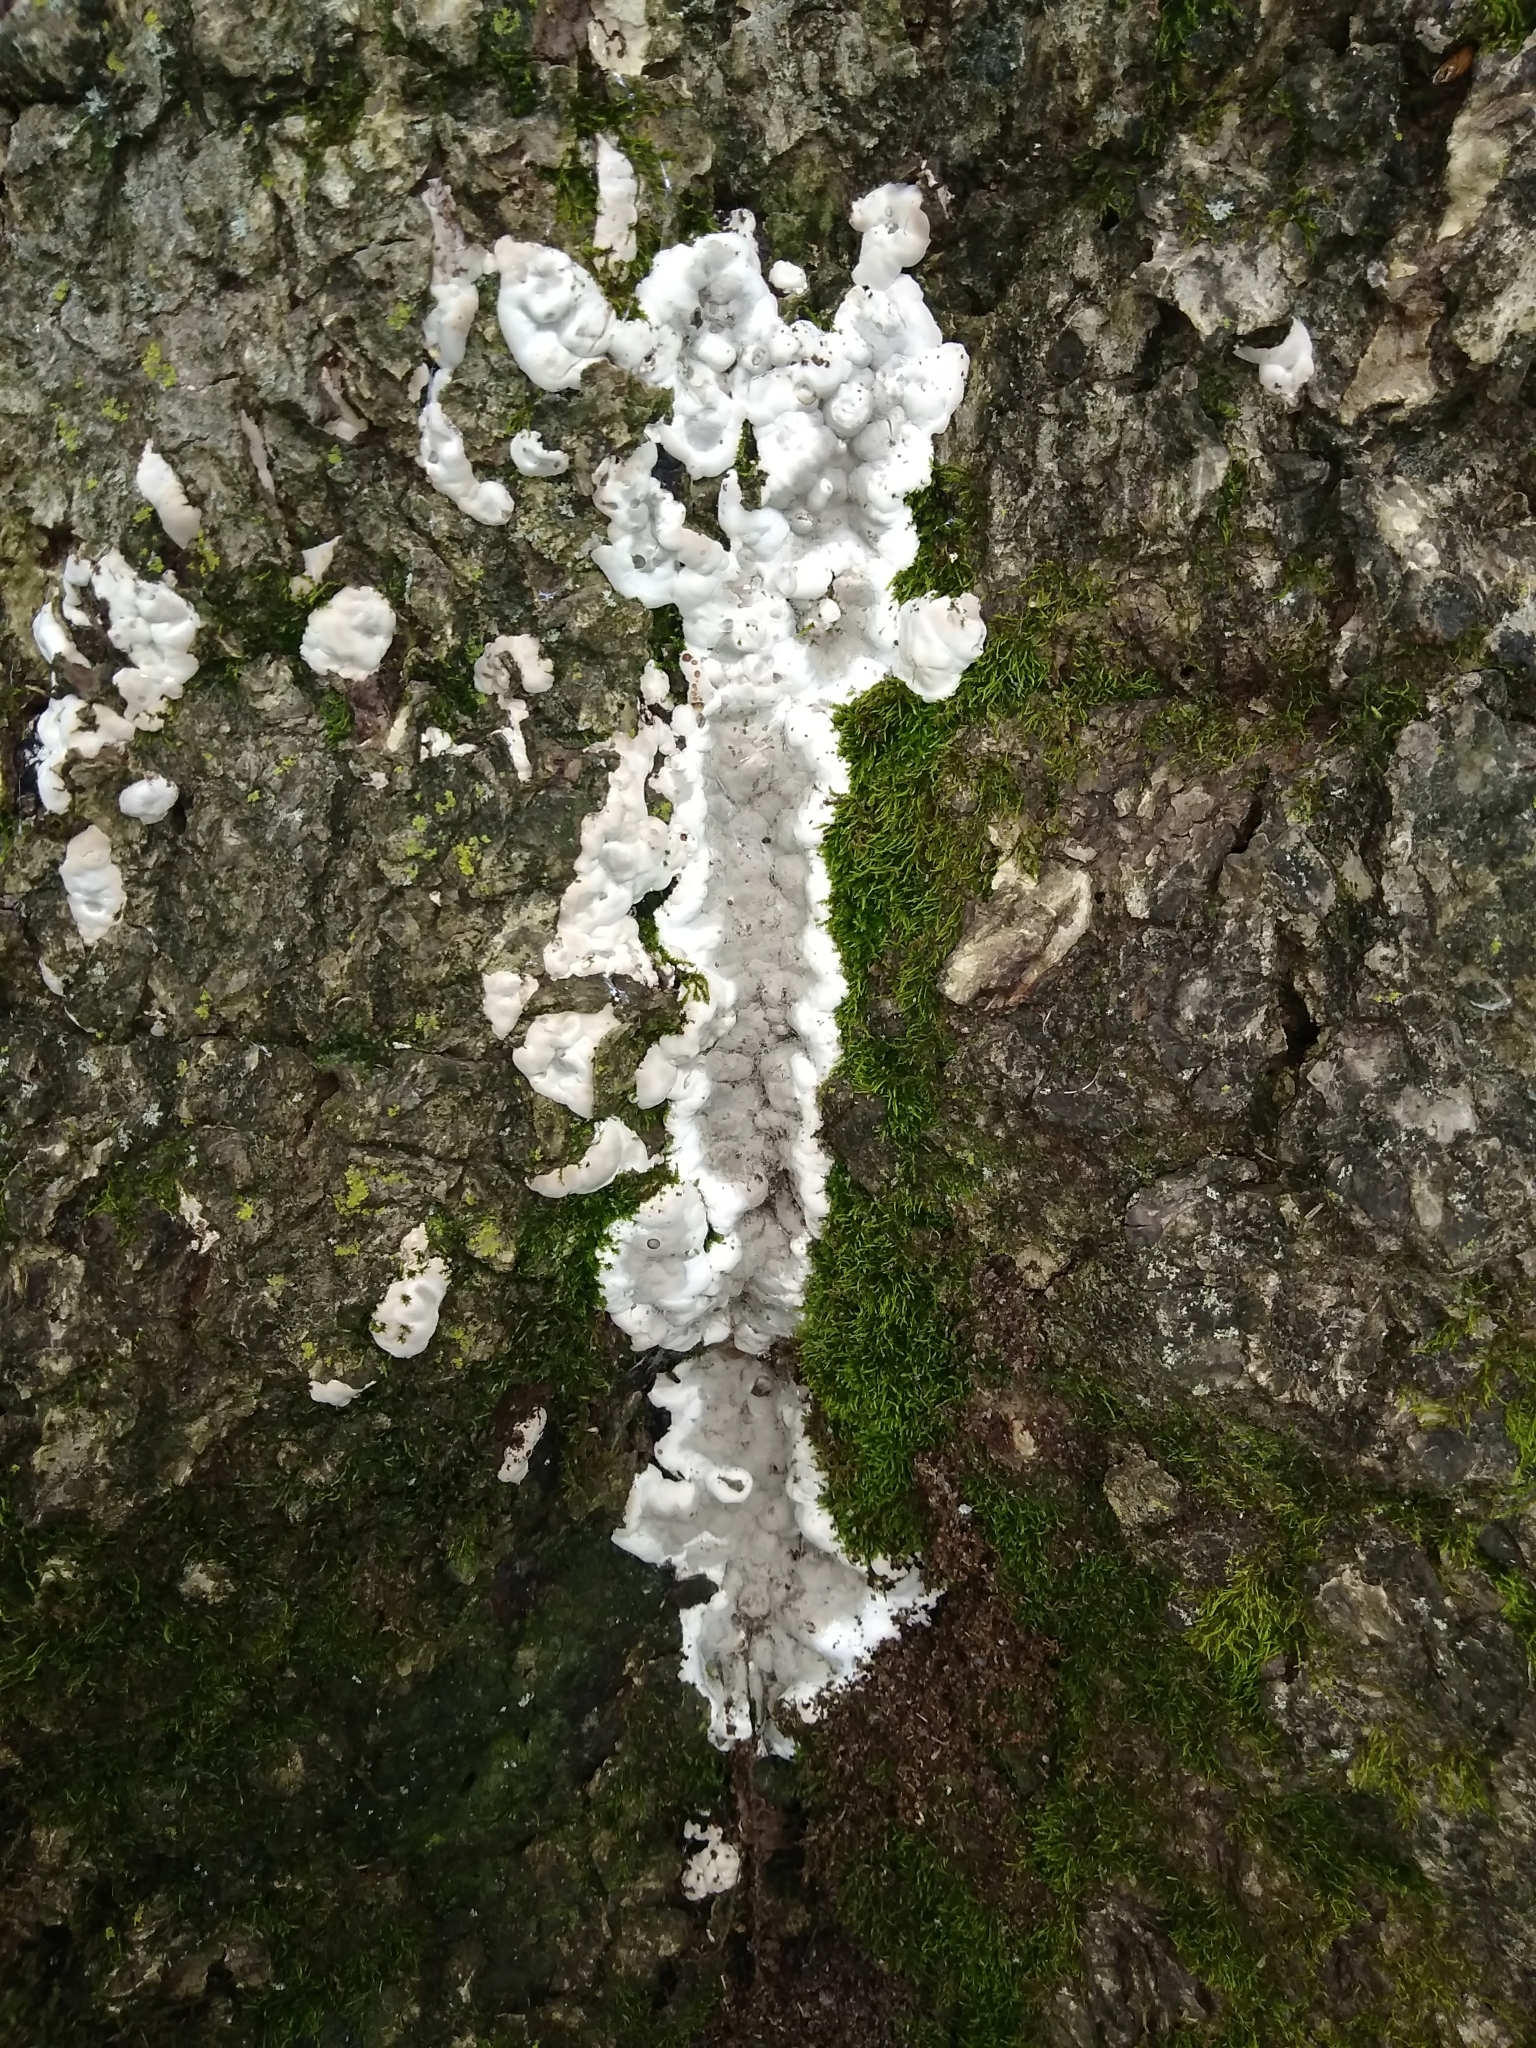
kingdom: Fungi
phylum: Ascomycota
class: Sordariomycetes
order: Xylariales
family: Xylariaceae
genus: Kretzschmaria
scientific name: Kretzschmaria deusta
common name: Brittle cinder
